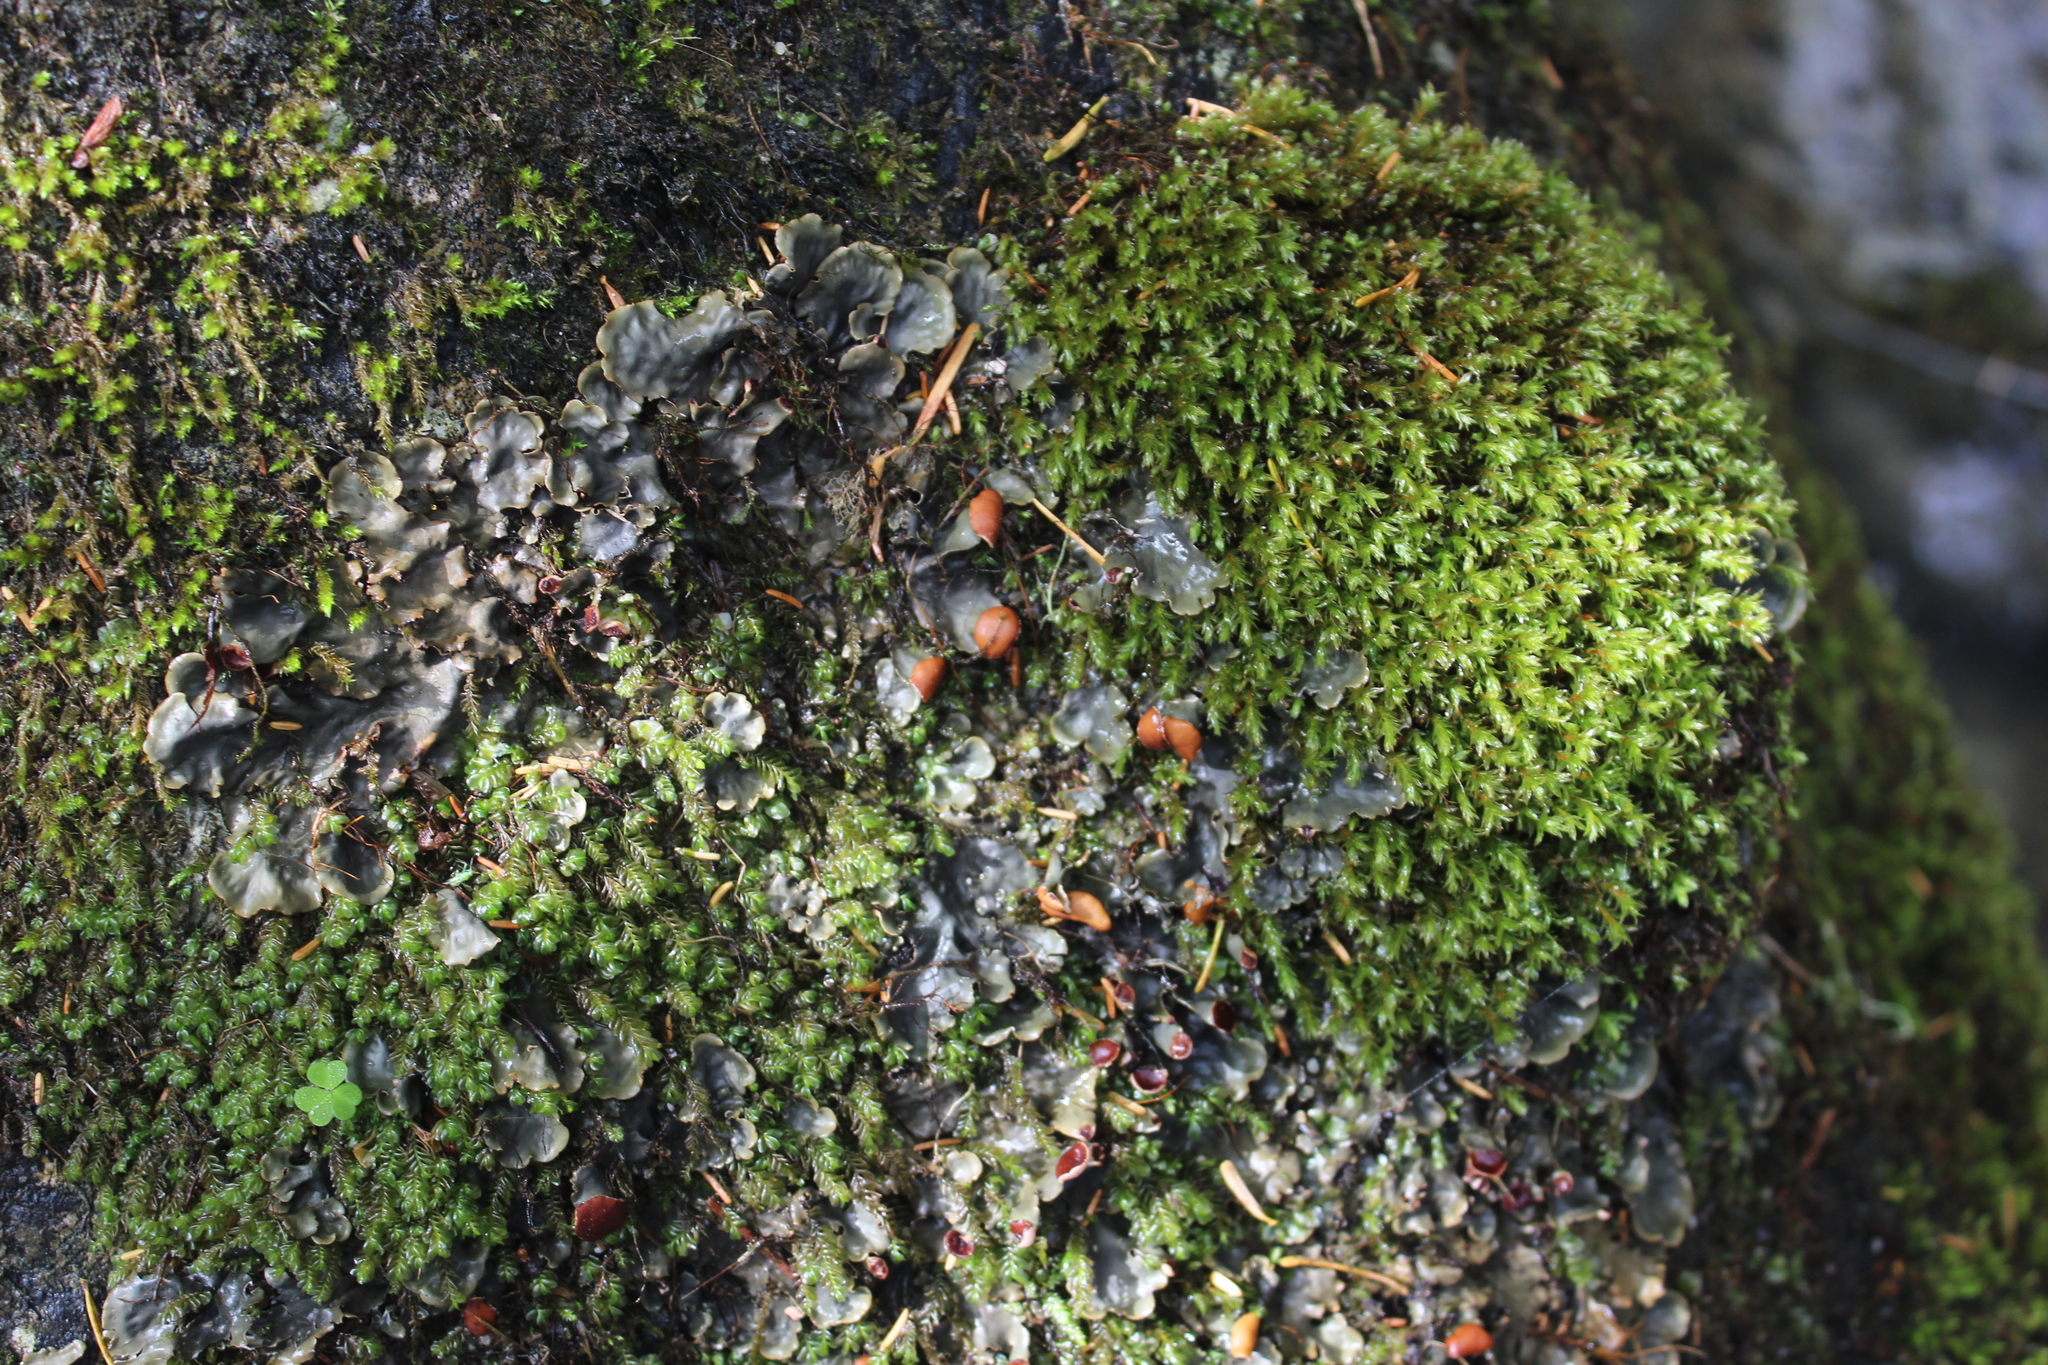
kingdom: Fungi
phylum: Ascomycota
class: Lecanoromycetes
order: Peltigerales
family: Peltigeraceae
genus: Peltigera
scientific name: Peltigera horizontalis
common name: Flat fruited pelt
